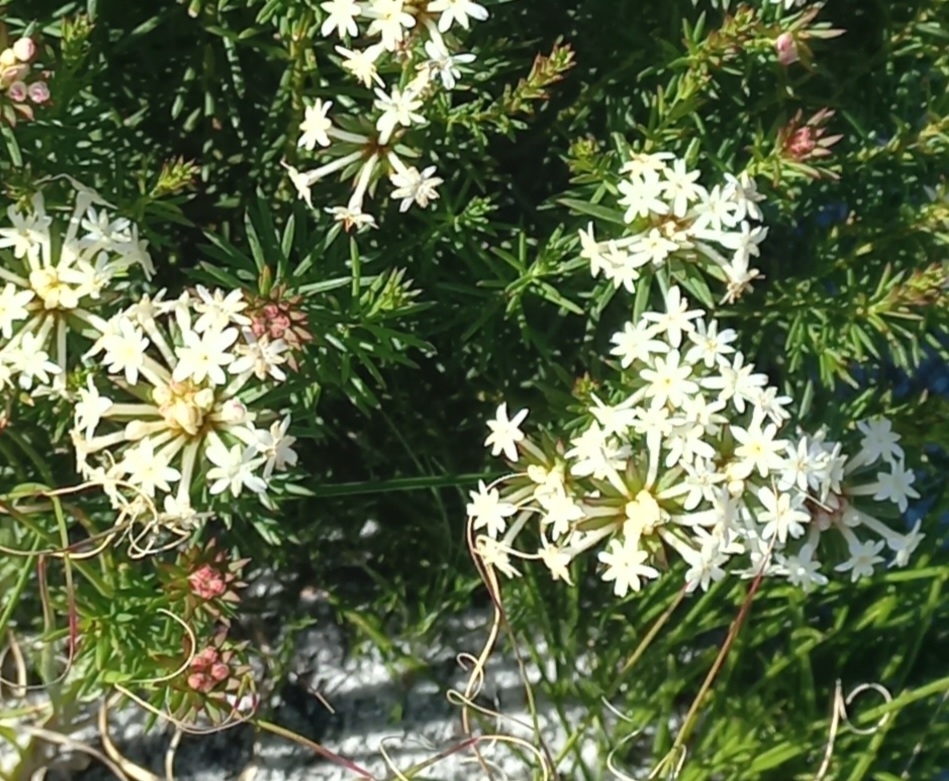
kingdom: Plantae
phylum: Tracheophyta
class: Magnoliopsida
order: Malvales
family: Thymelaeaceae
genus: Gnidia
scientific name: Gnidia pinifolia
